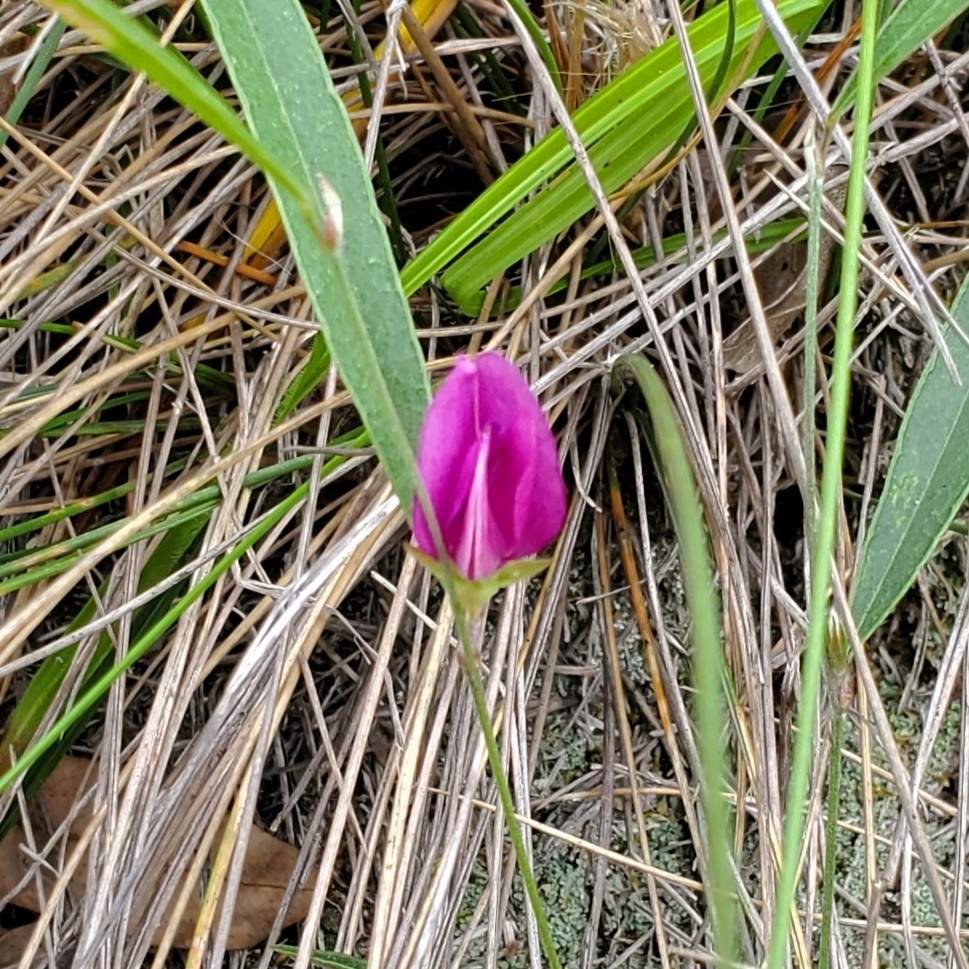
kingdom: Plantae
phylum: Tracheophyta
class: Magnoliopsida
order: Fabales
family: Fabaceae
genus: Nanogalactia
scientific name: Nanogalactia heterophylla
